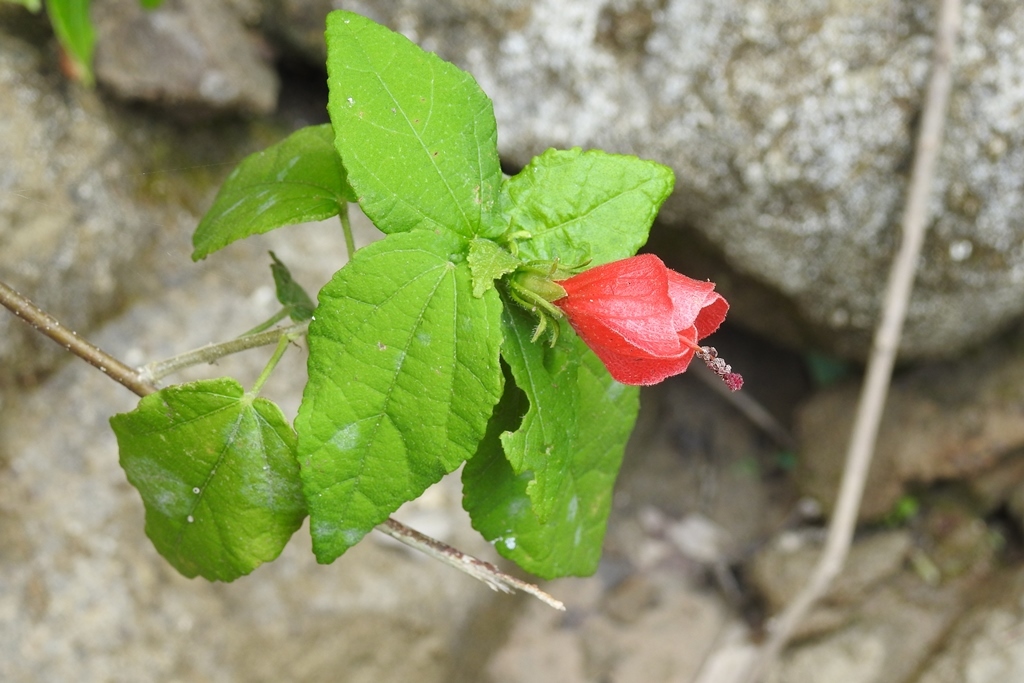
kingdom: Plantae
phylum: Tracheophyta
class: Magnoliopsida
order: Malvales
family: Malvaceae
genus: Malvaviscus
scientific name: Malvaviscus arboreus
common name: Wax mallow
